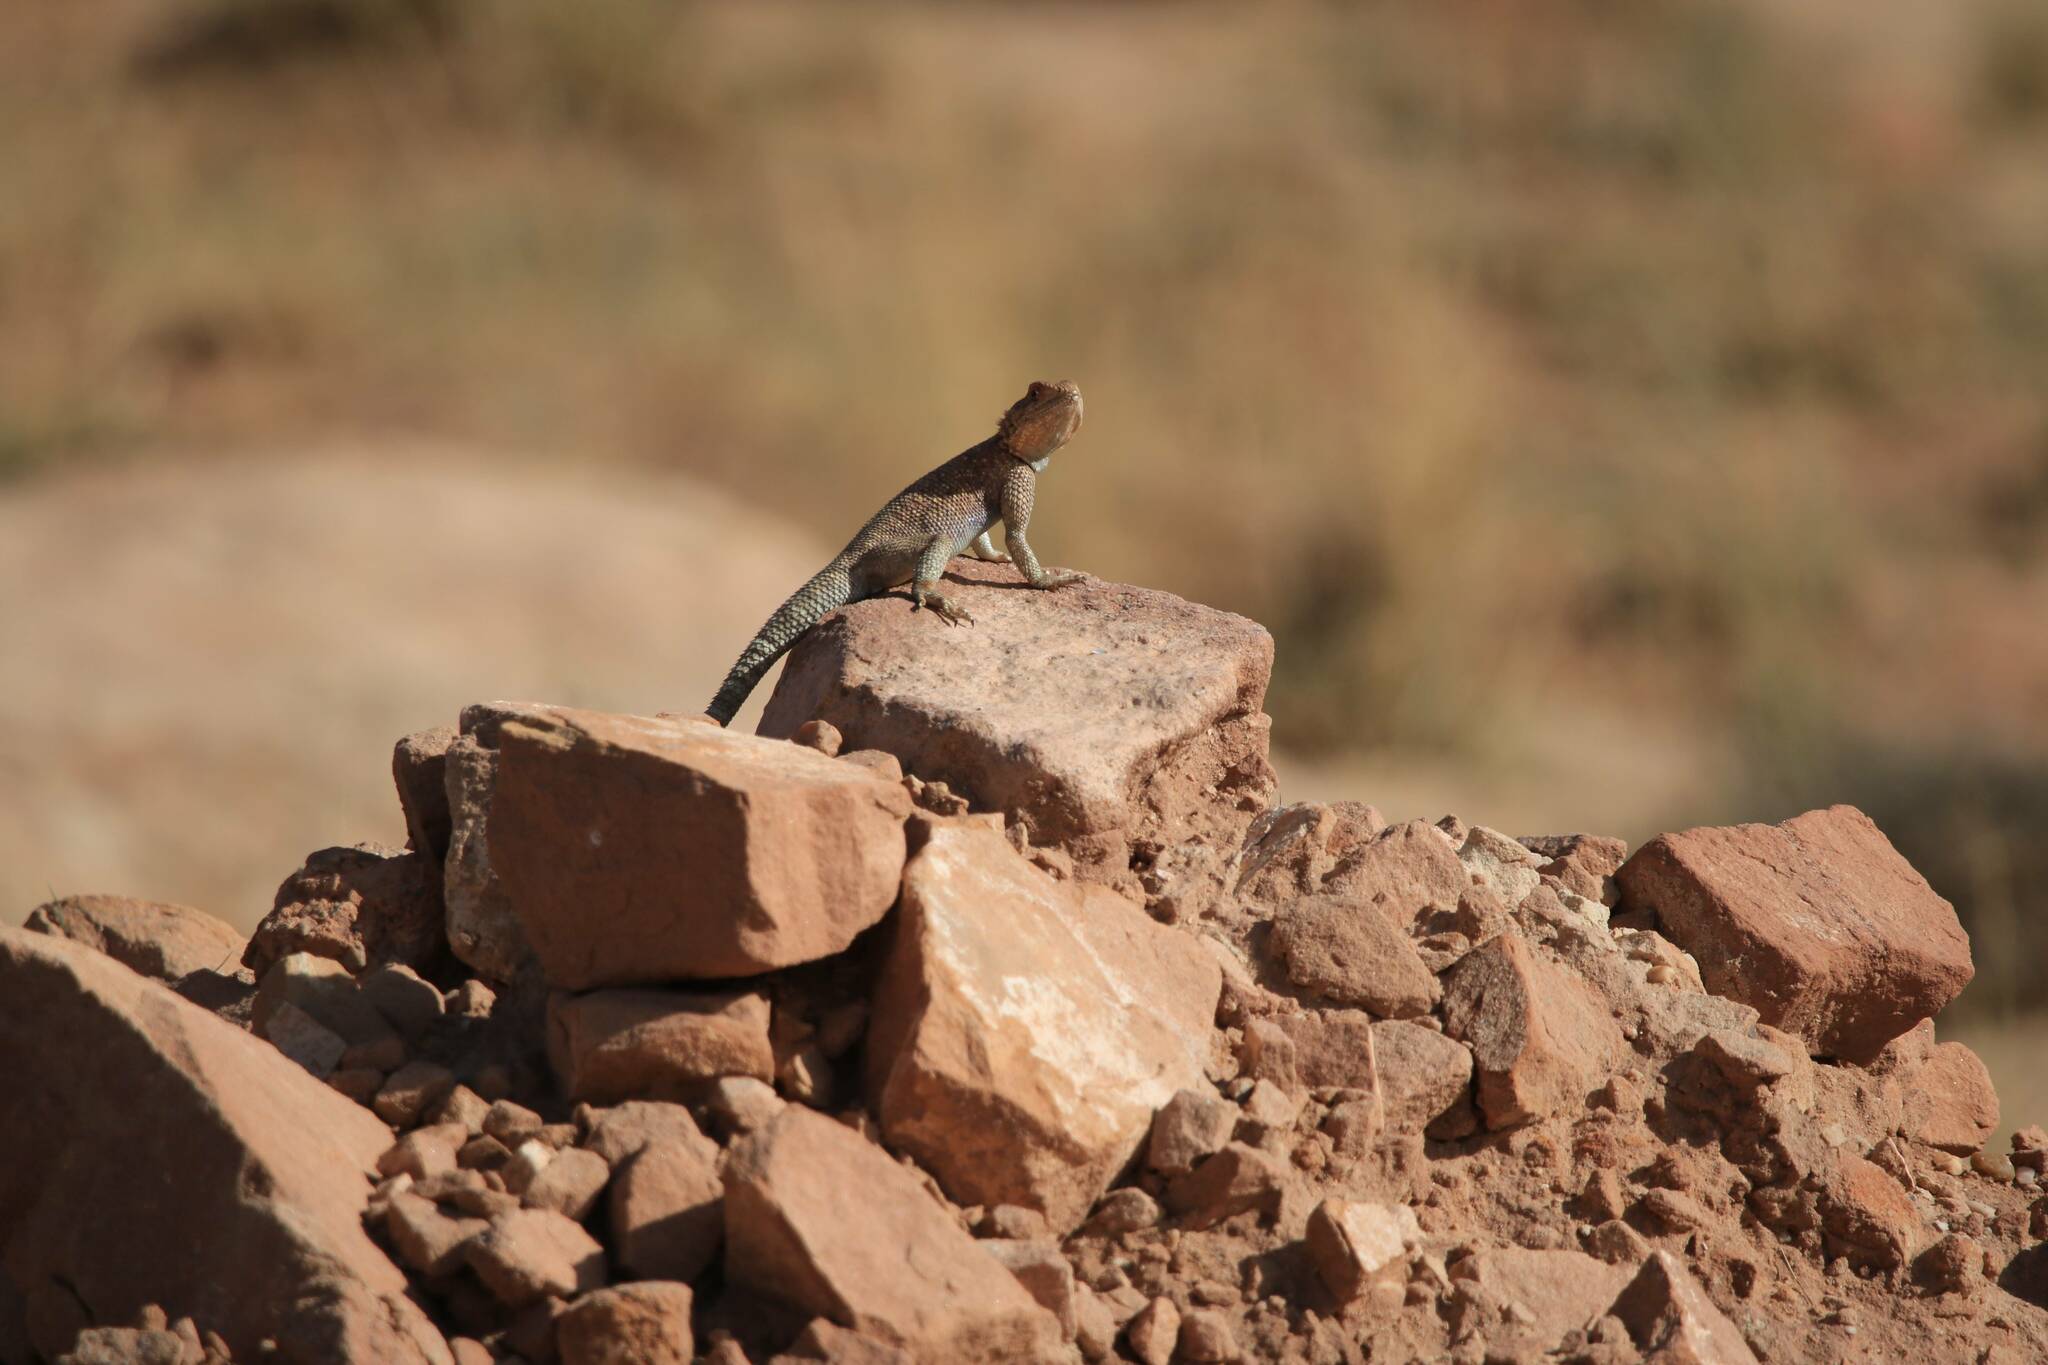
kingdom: Animalia
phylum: Chordata
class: Squamata
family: Agamidae
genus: Agama
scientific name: Agama impalearis
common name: Bibron's agama
